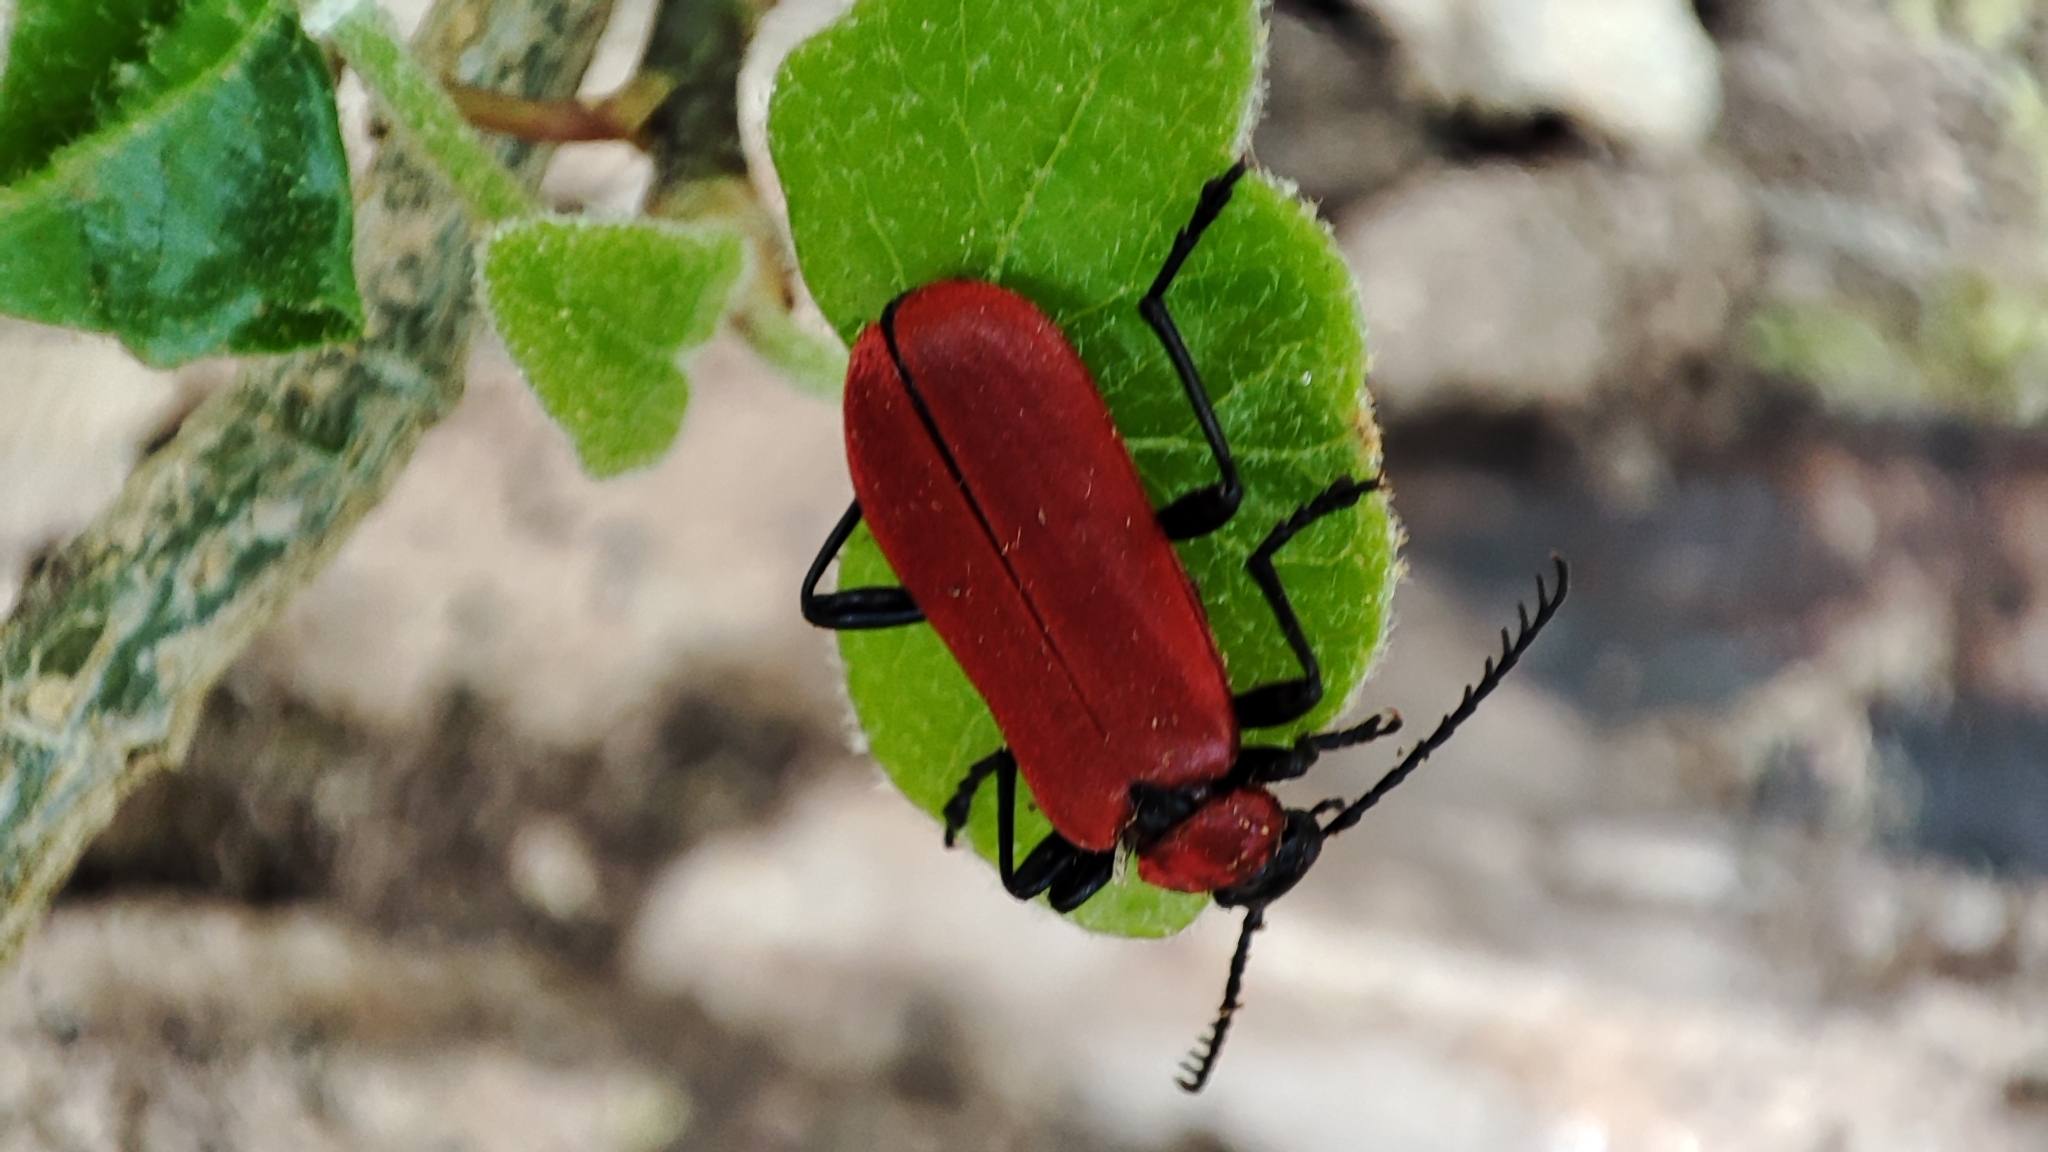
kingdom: Animalia
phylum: Arthropoda
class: Insecta
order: Coleoptera
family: Pyrochroidae
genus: Pyrochroa
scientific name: Pyrochroa coccinea
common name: Black-headed cardinal beetle
